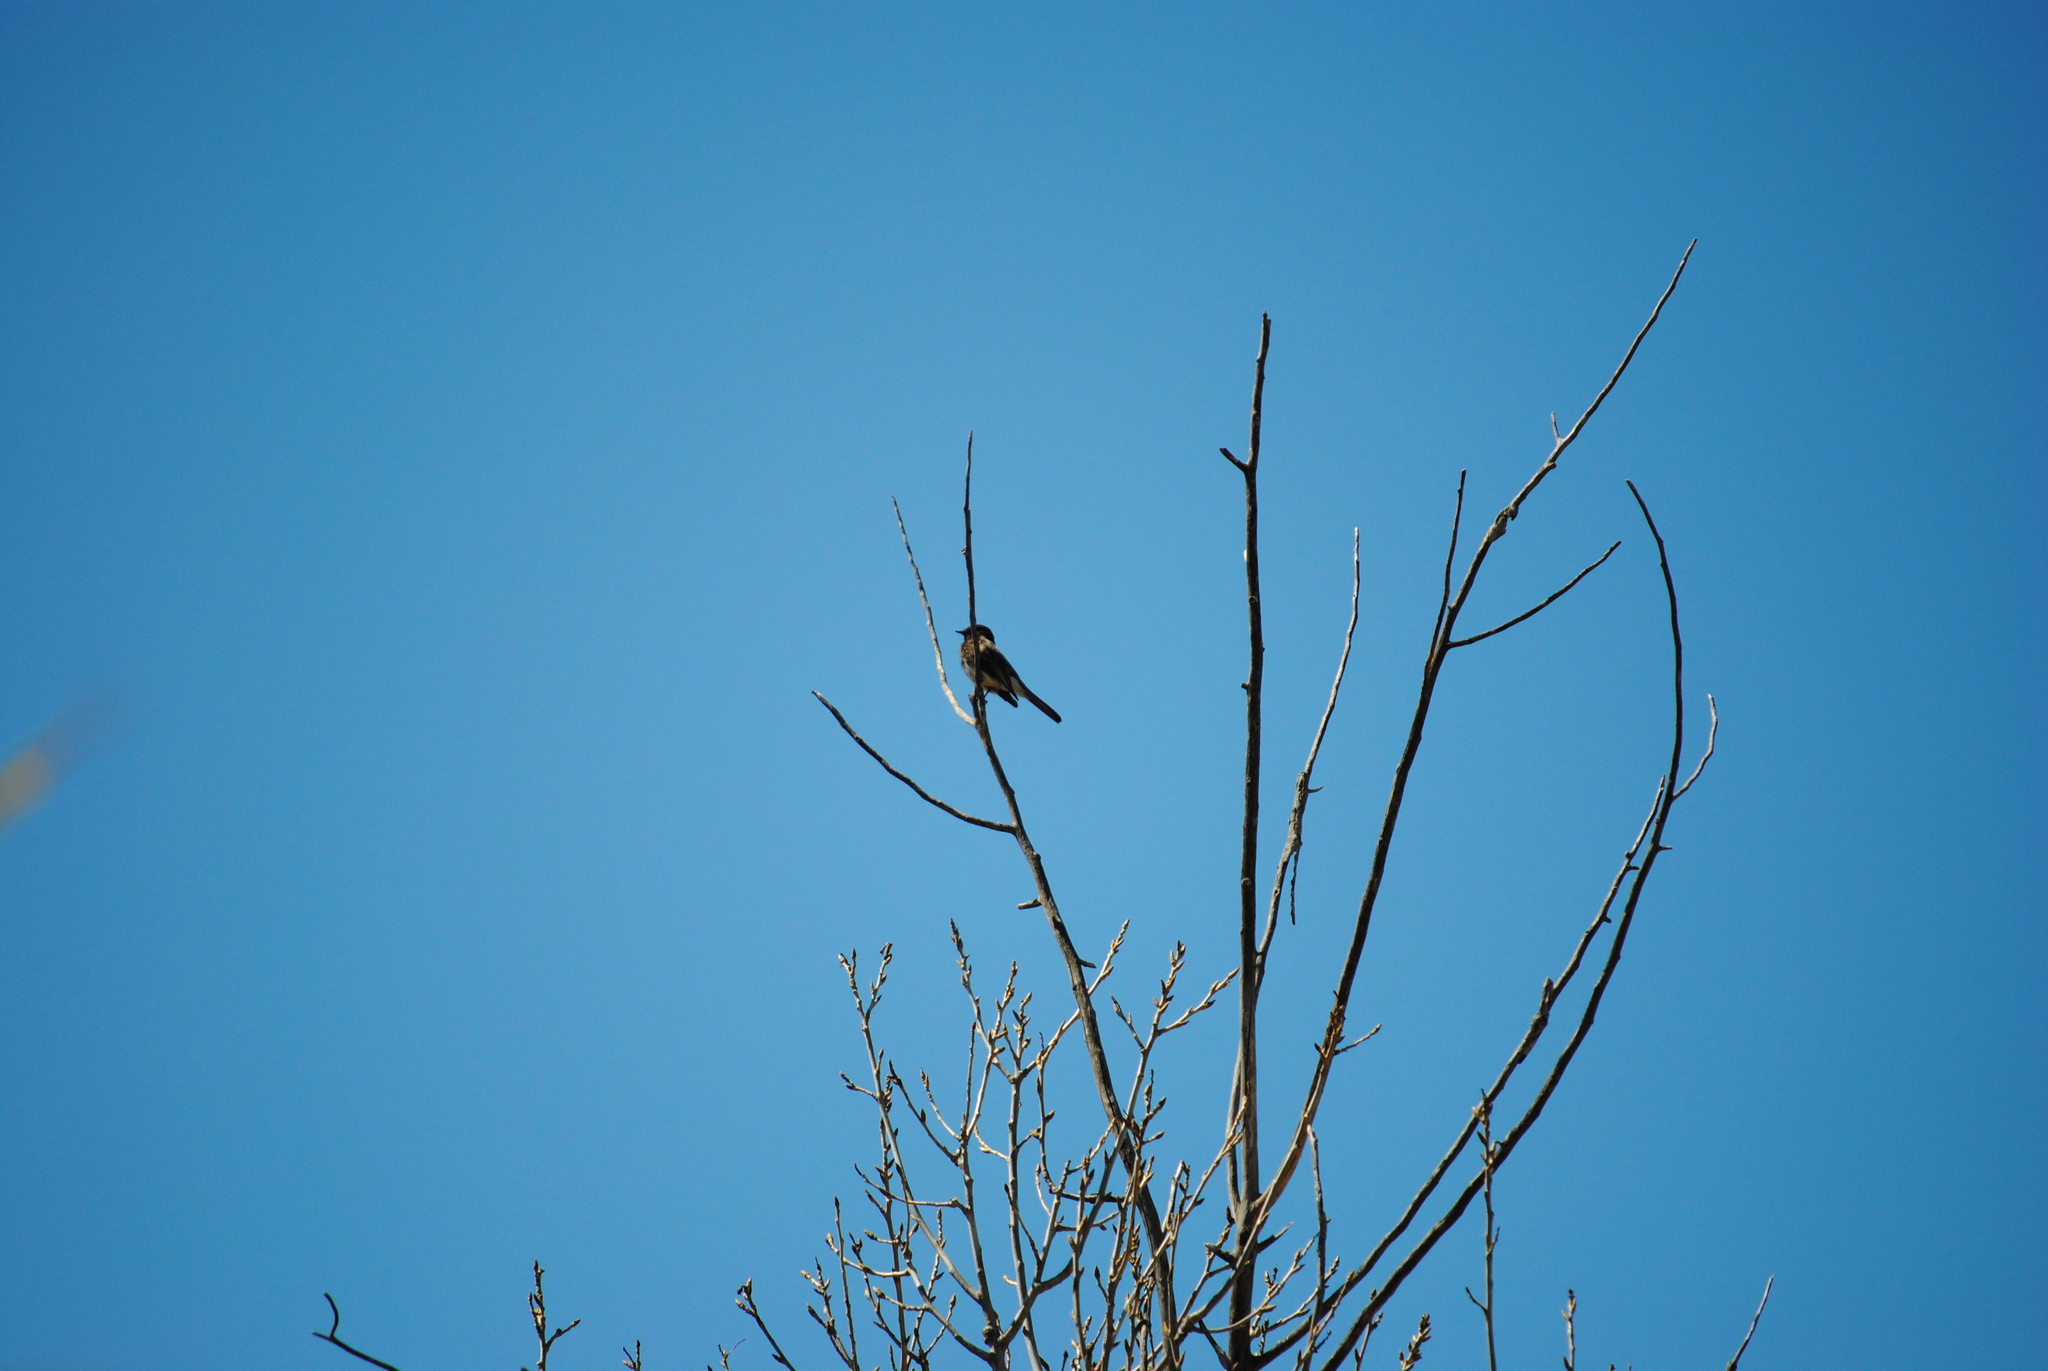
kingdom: Animalia
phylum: Chordata
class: Aves
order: Passeriformes
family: Tyrannidae
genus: Sayornis
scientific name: Sayornis nigricans
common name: Black phoebe
